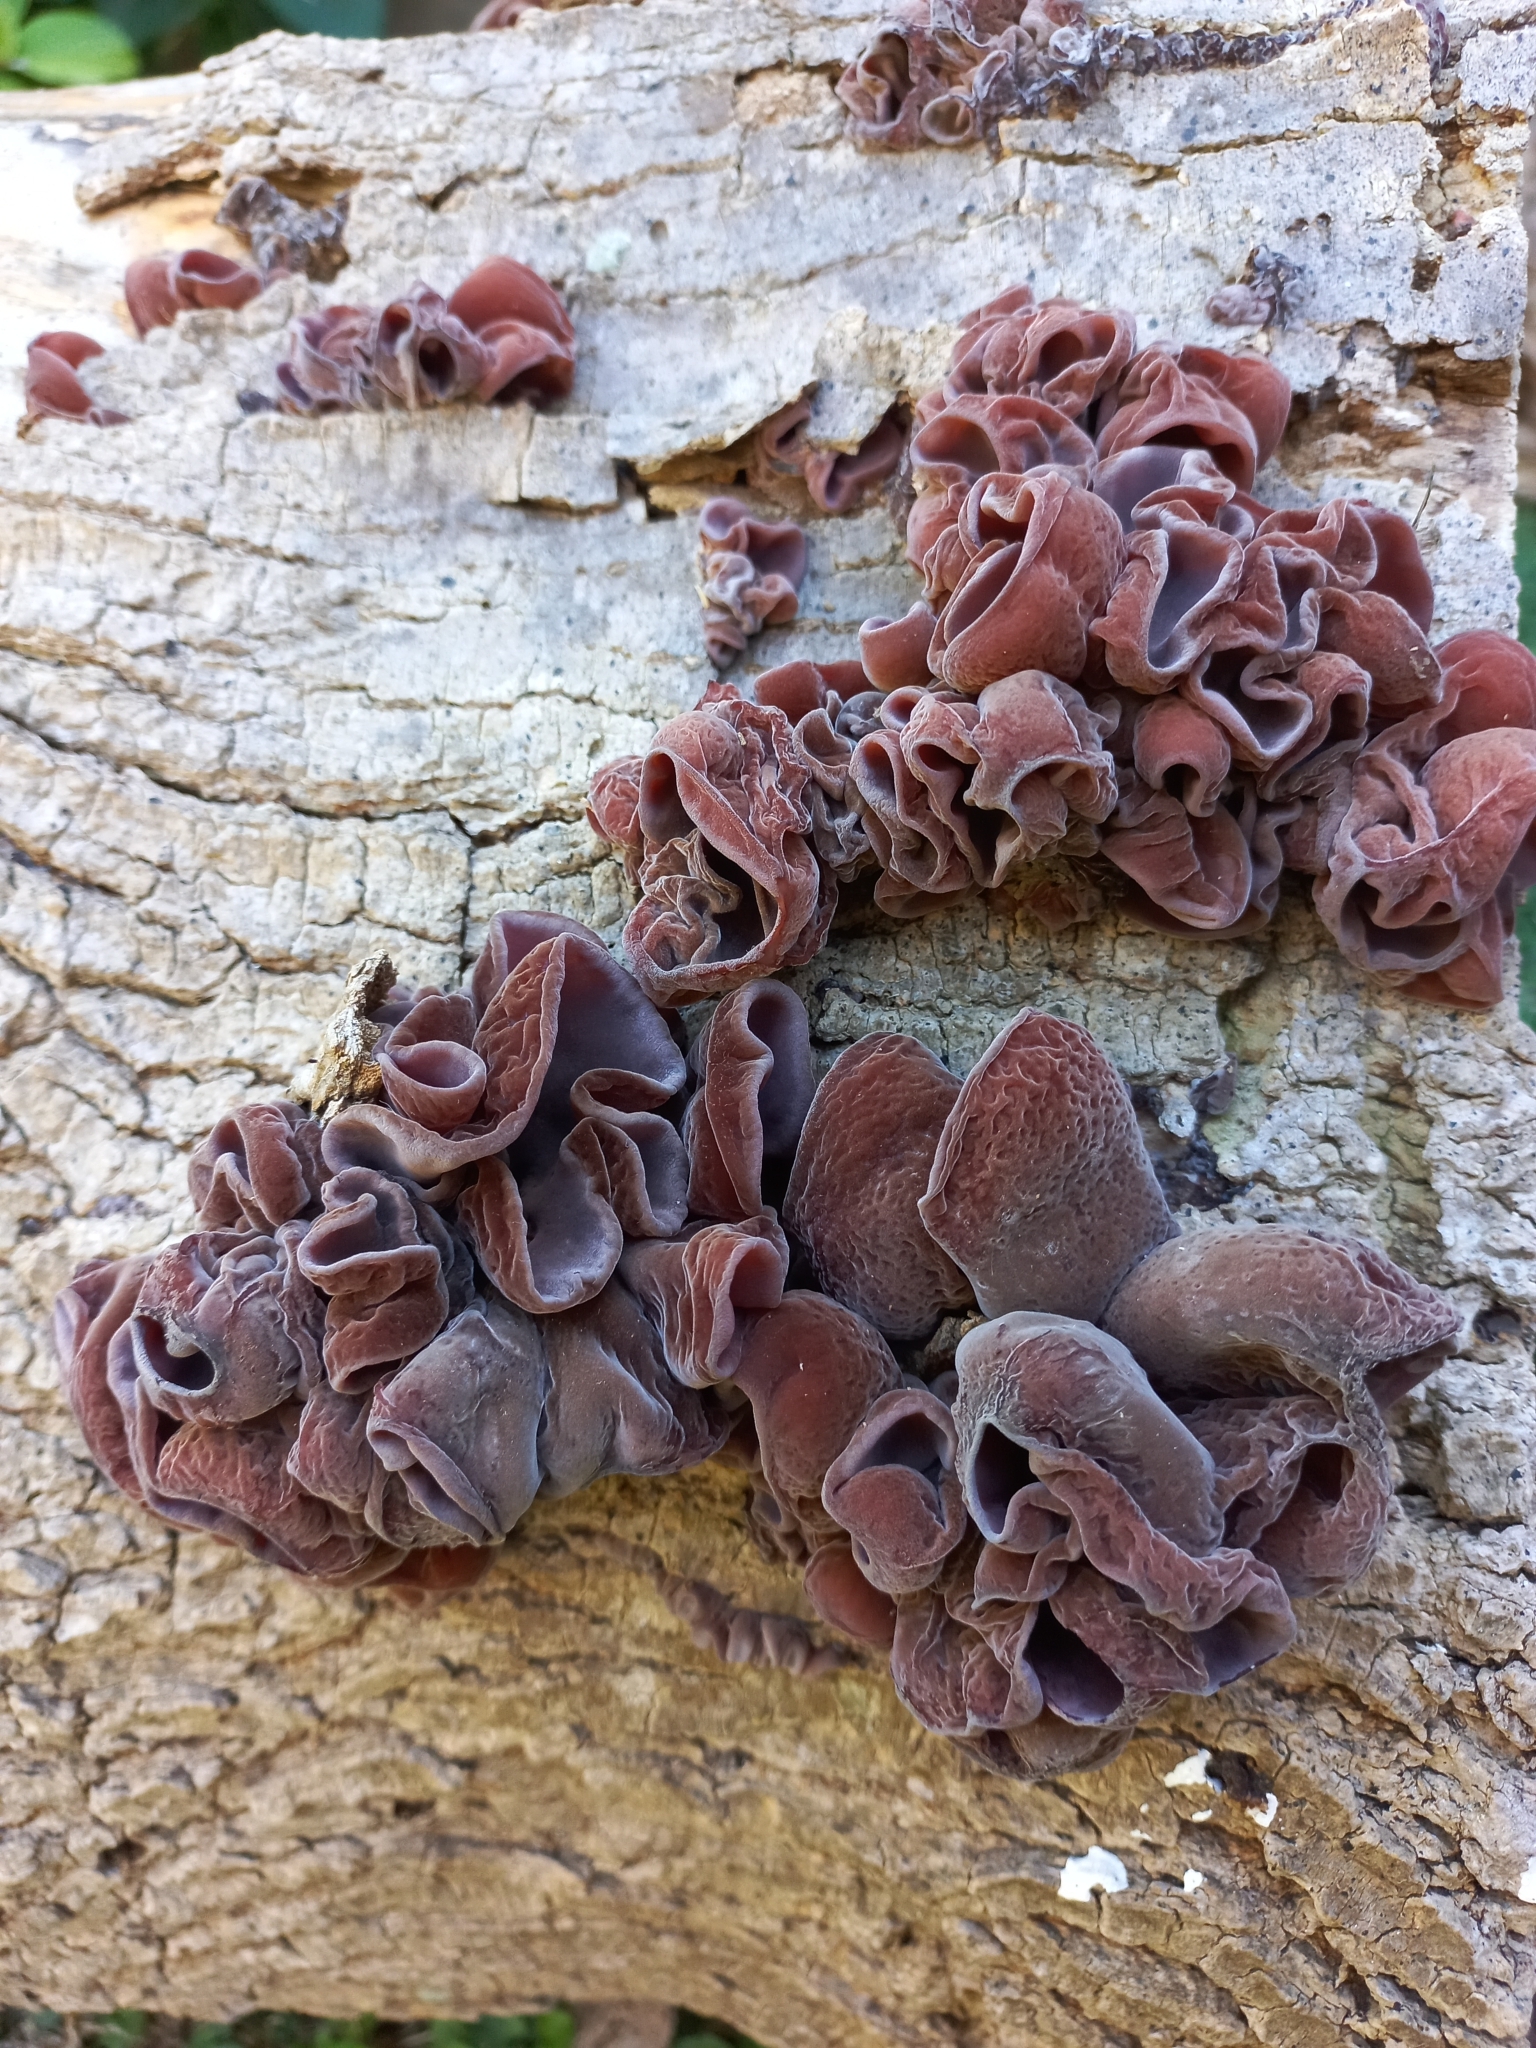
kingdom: Fungi
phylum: Basidiomycota
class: Agaricomycetes
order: Auriculariales
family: Auriculariaceae
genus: Auricularia
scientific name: Auricularia fuscosuccinea
